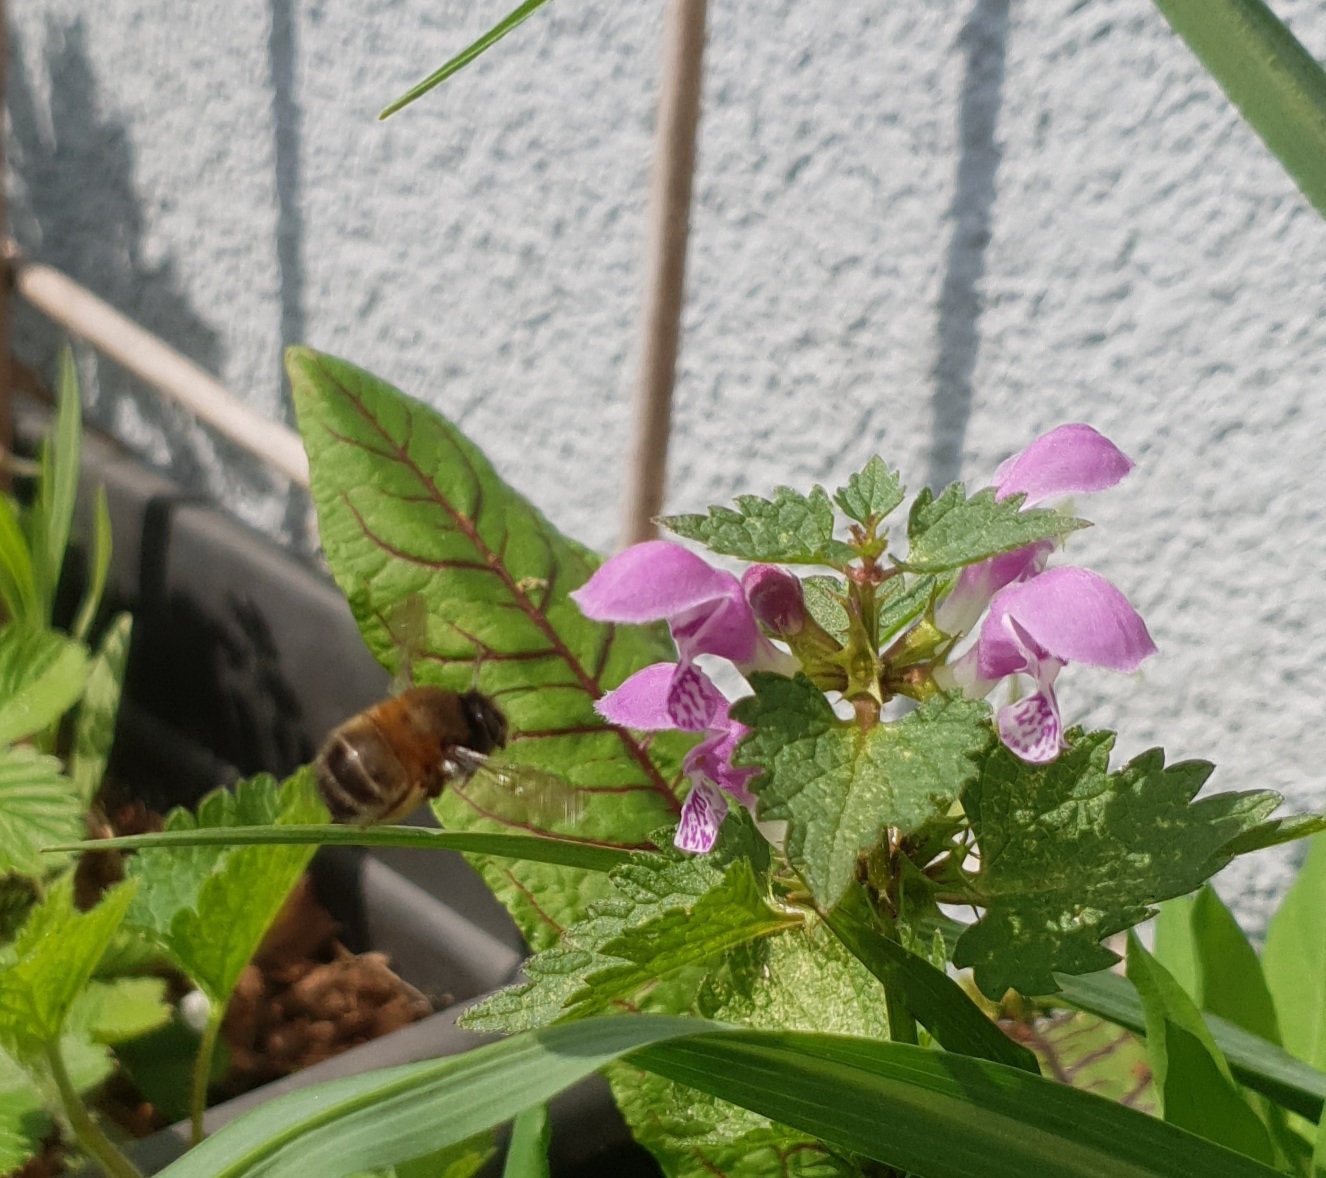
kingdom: Animalia
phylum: Arthropoda
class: Insecta
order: Hymenoptera
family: Apidae
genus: Anthophora
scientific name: Anthophora plumipes
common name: Hairy-footed flower bee
